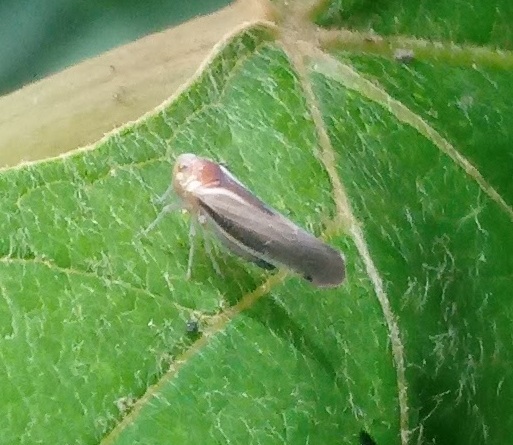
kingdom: Animalia
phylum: Arthropoda
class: Insecta
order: Hemiptera
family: Derbidae
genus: Omolicna
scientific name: Omolicna uhleri
